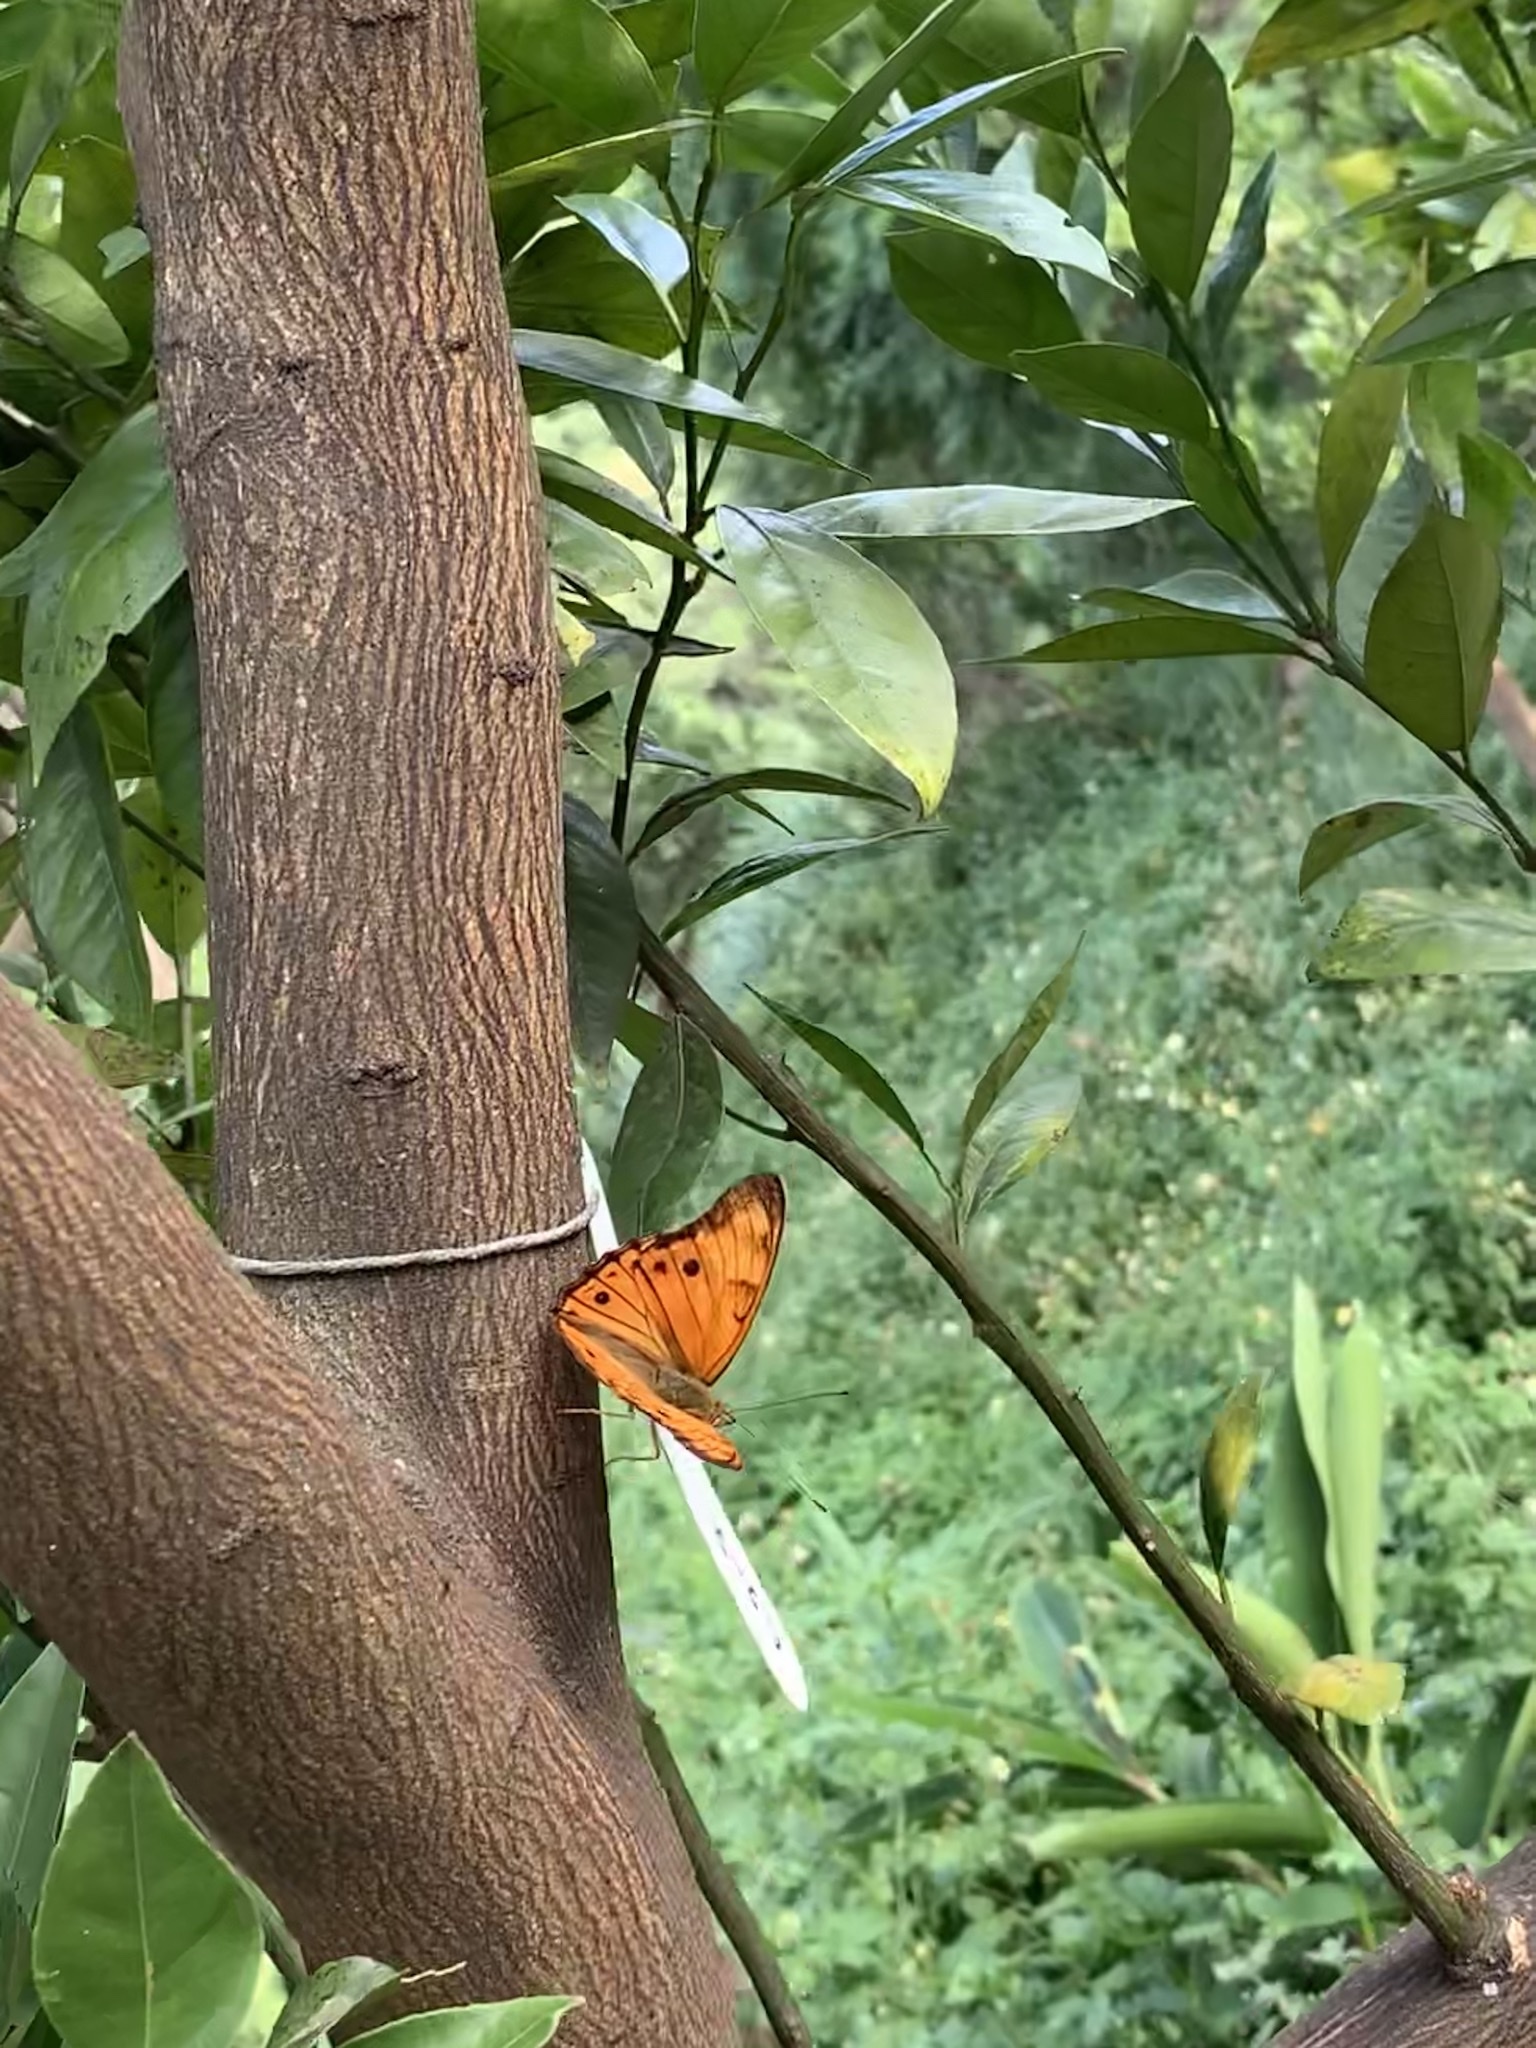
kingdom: Animalia
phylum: Arthropoda
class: Insecta
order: Lepidoptera
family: Nymphalidae
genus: Apatura
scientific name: Apatura Chitoria chrysolora
